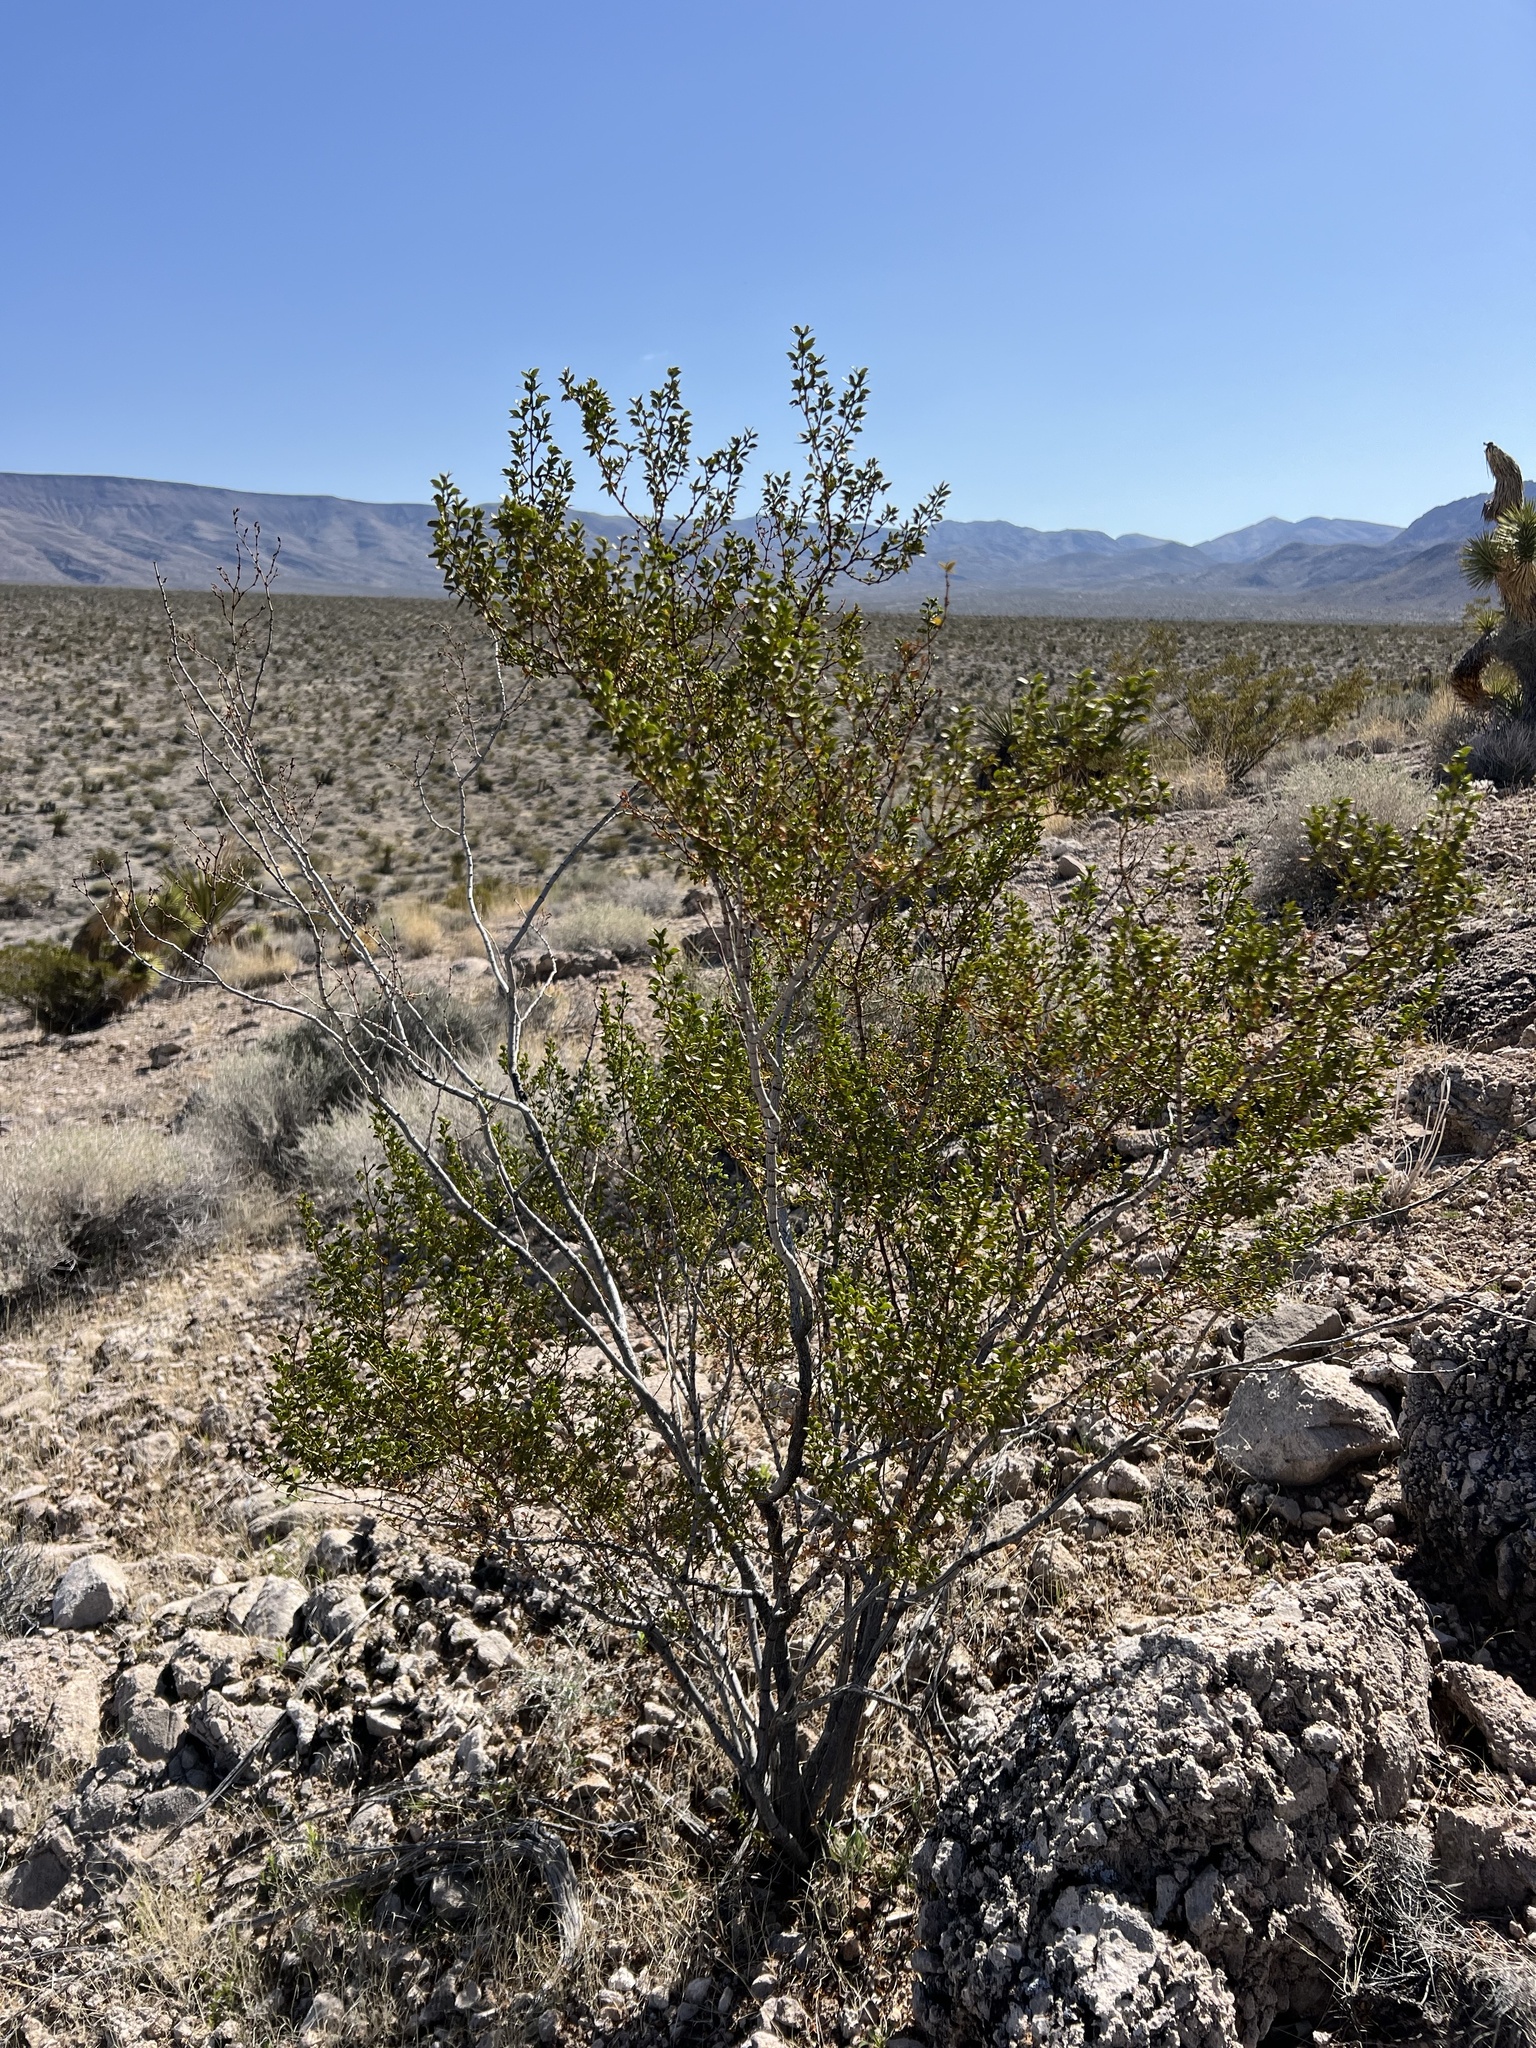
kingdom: Plantae
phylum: Tracheophyta
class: Magnoliopsida
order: Zygophyllales
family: Zygophyllaceae
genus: Larrea
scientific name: Larrea tridentata
